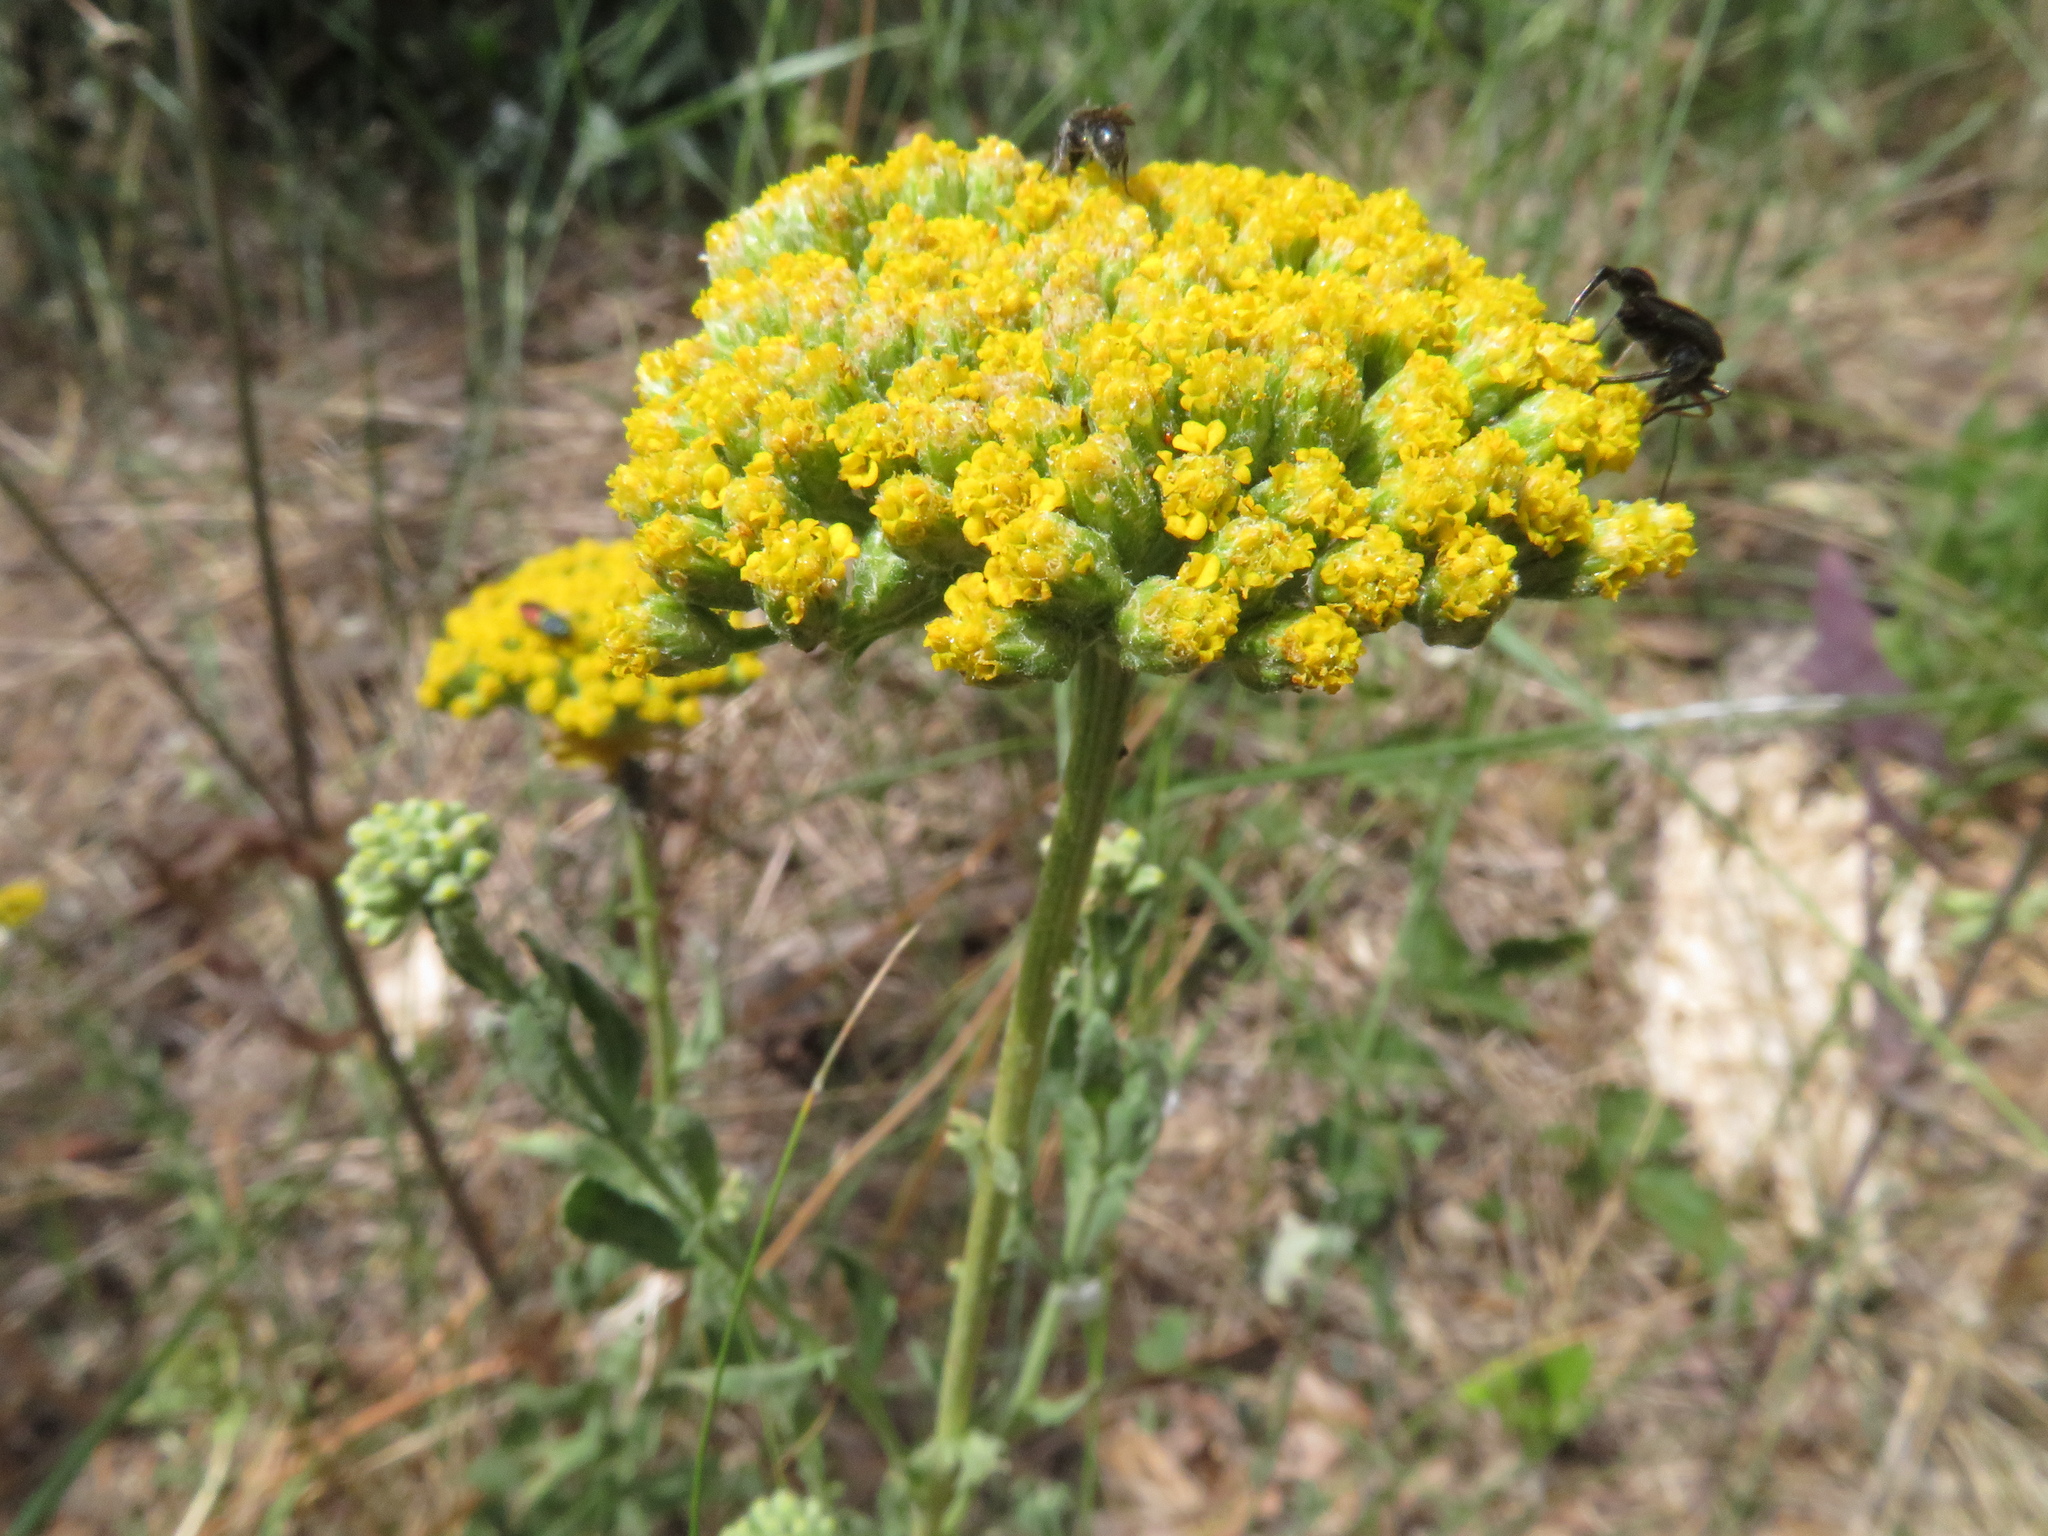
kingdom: Plantae
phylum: Tracheophyta
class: Magnoliopsida
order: Asterales
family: Asteraceae
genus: Achillea
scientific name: Achillea ageratum
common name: Sweet-nancy
